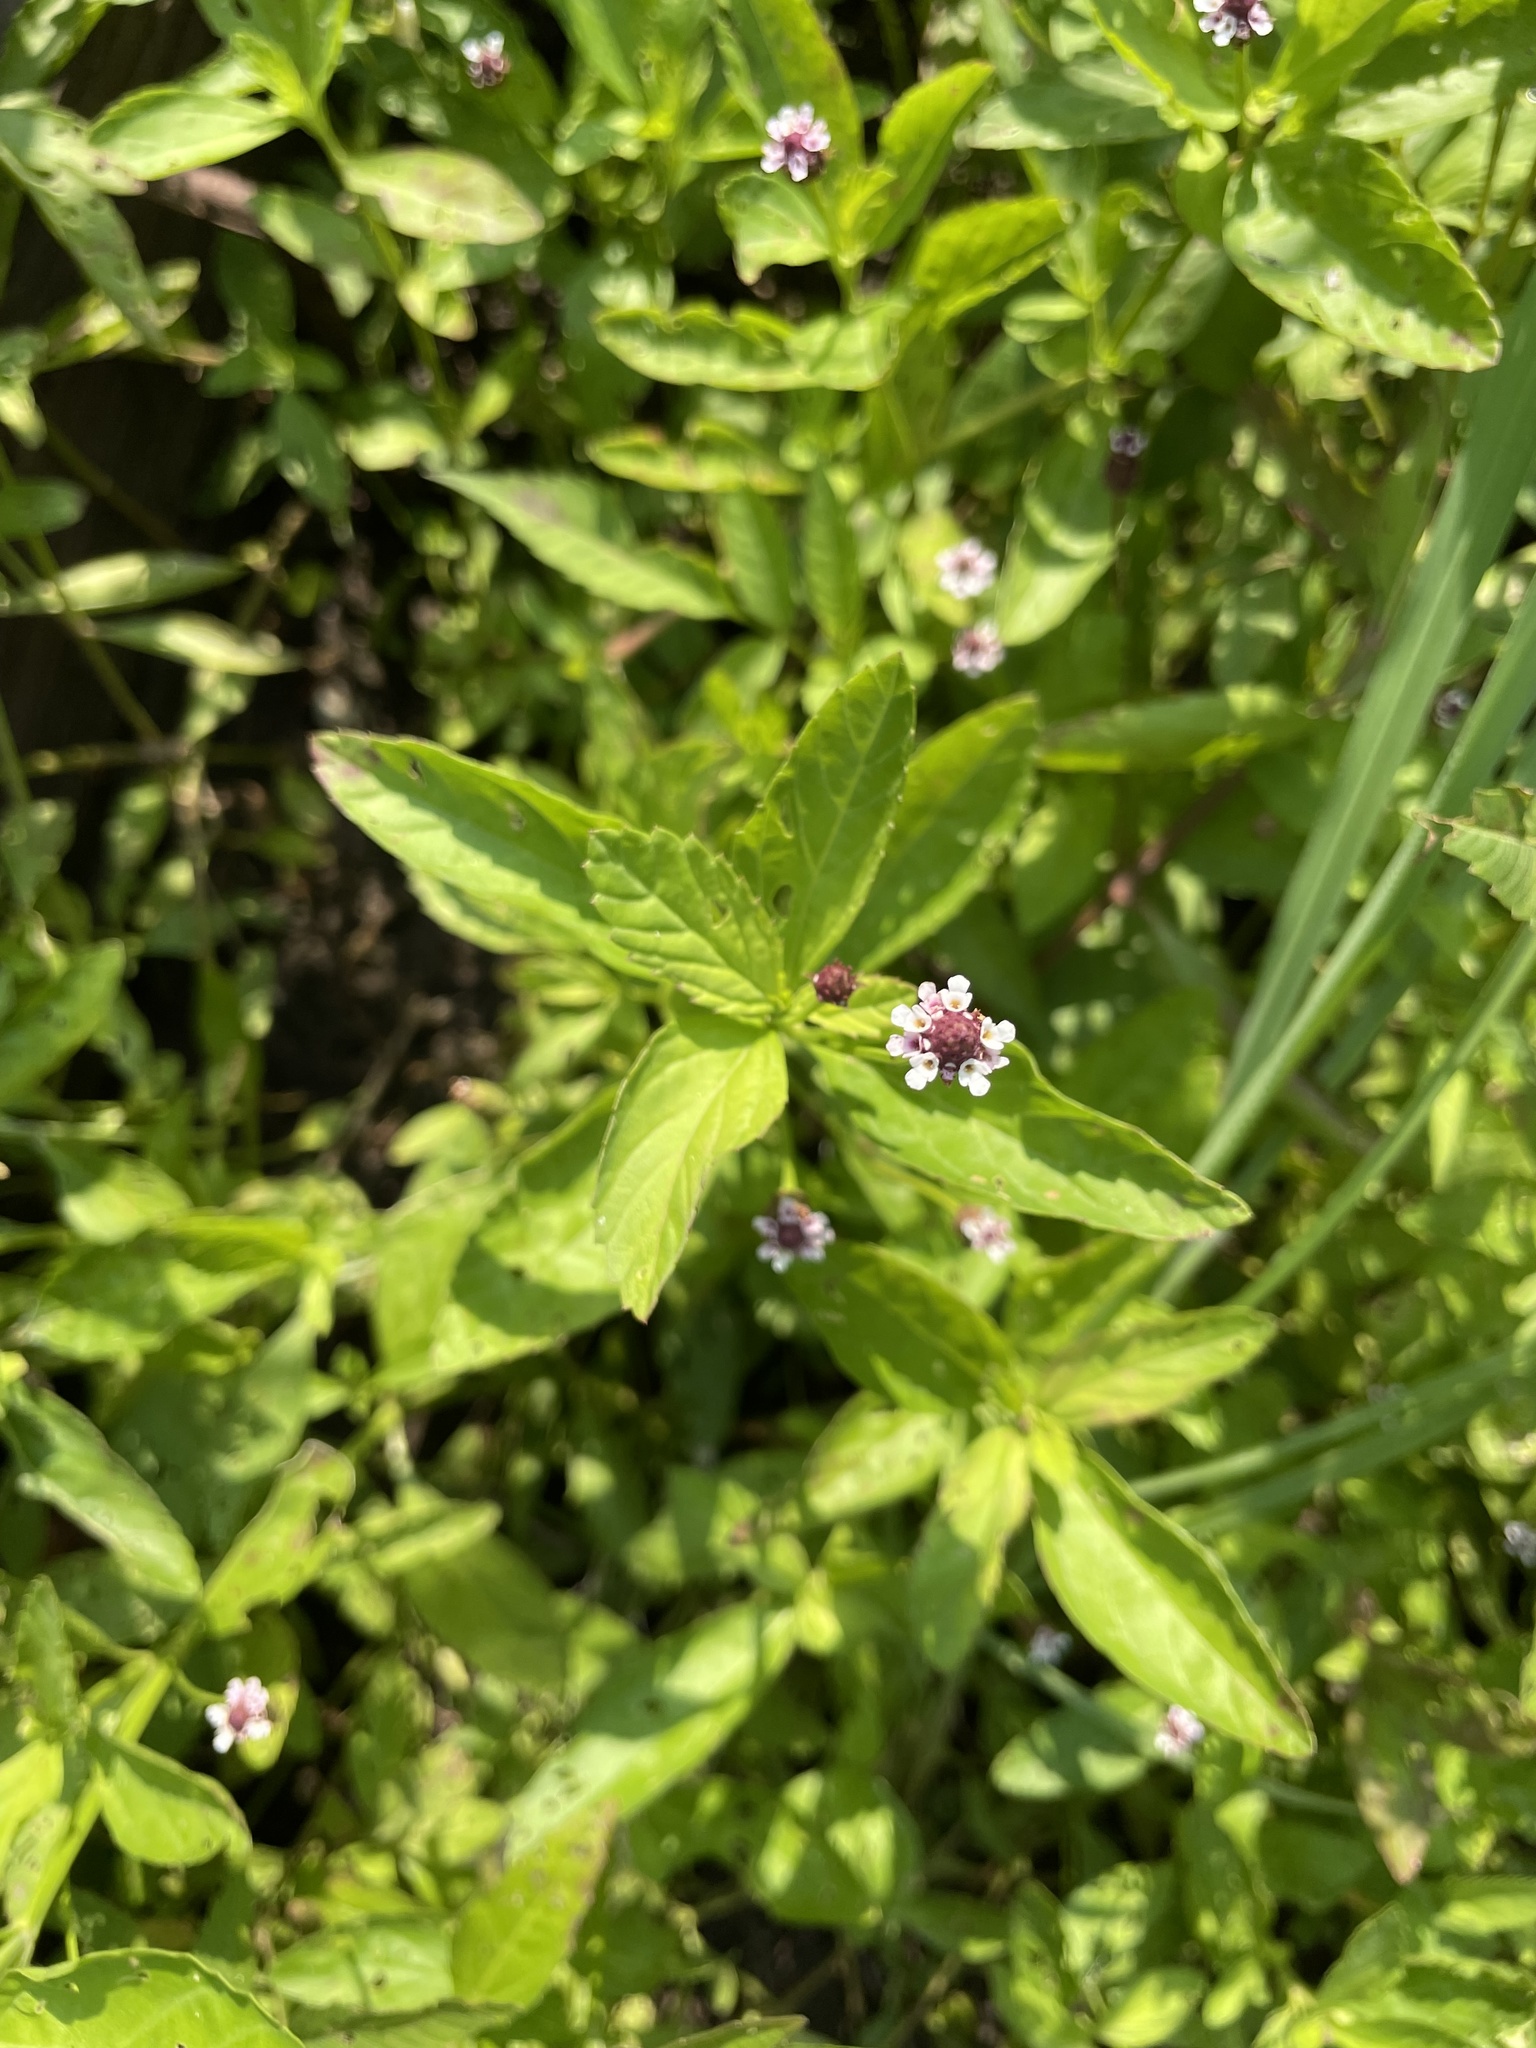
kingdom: Plantae
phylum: Tracheophyta
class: Magnoliopsida
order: Lamiales
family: Verbenaceae
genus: Phyla
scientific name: Phyla lanceolata
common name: Northern fogfruit
